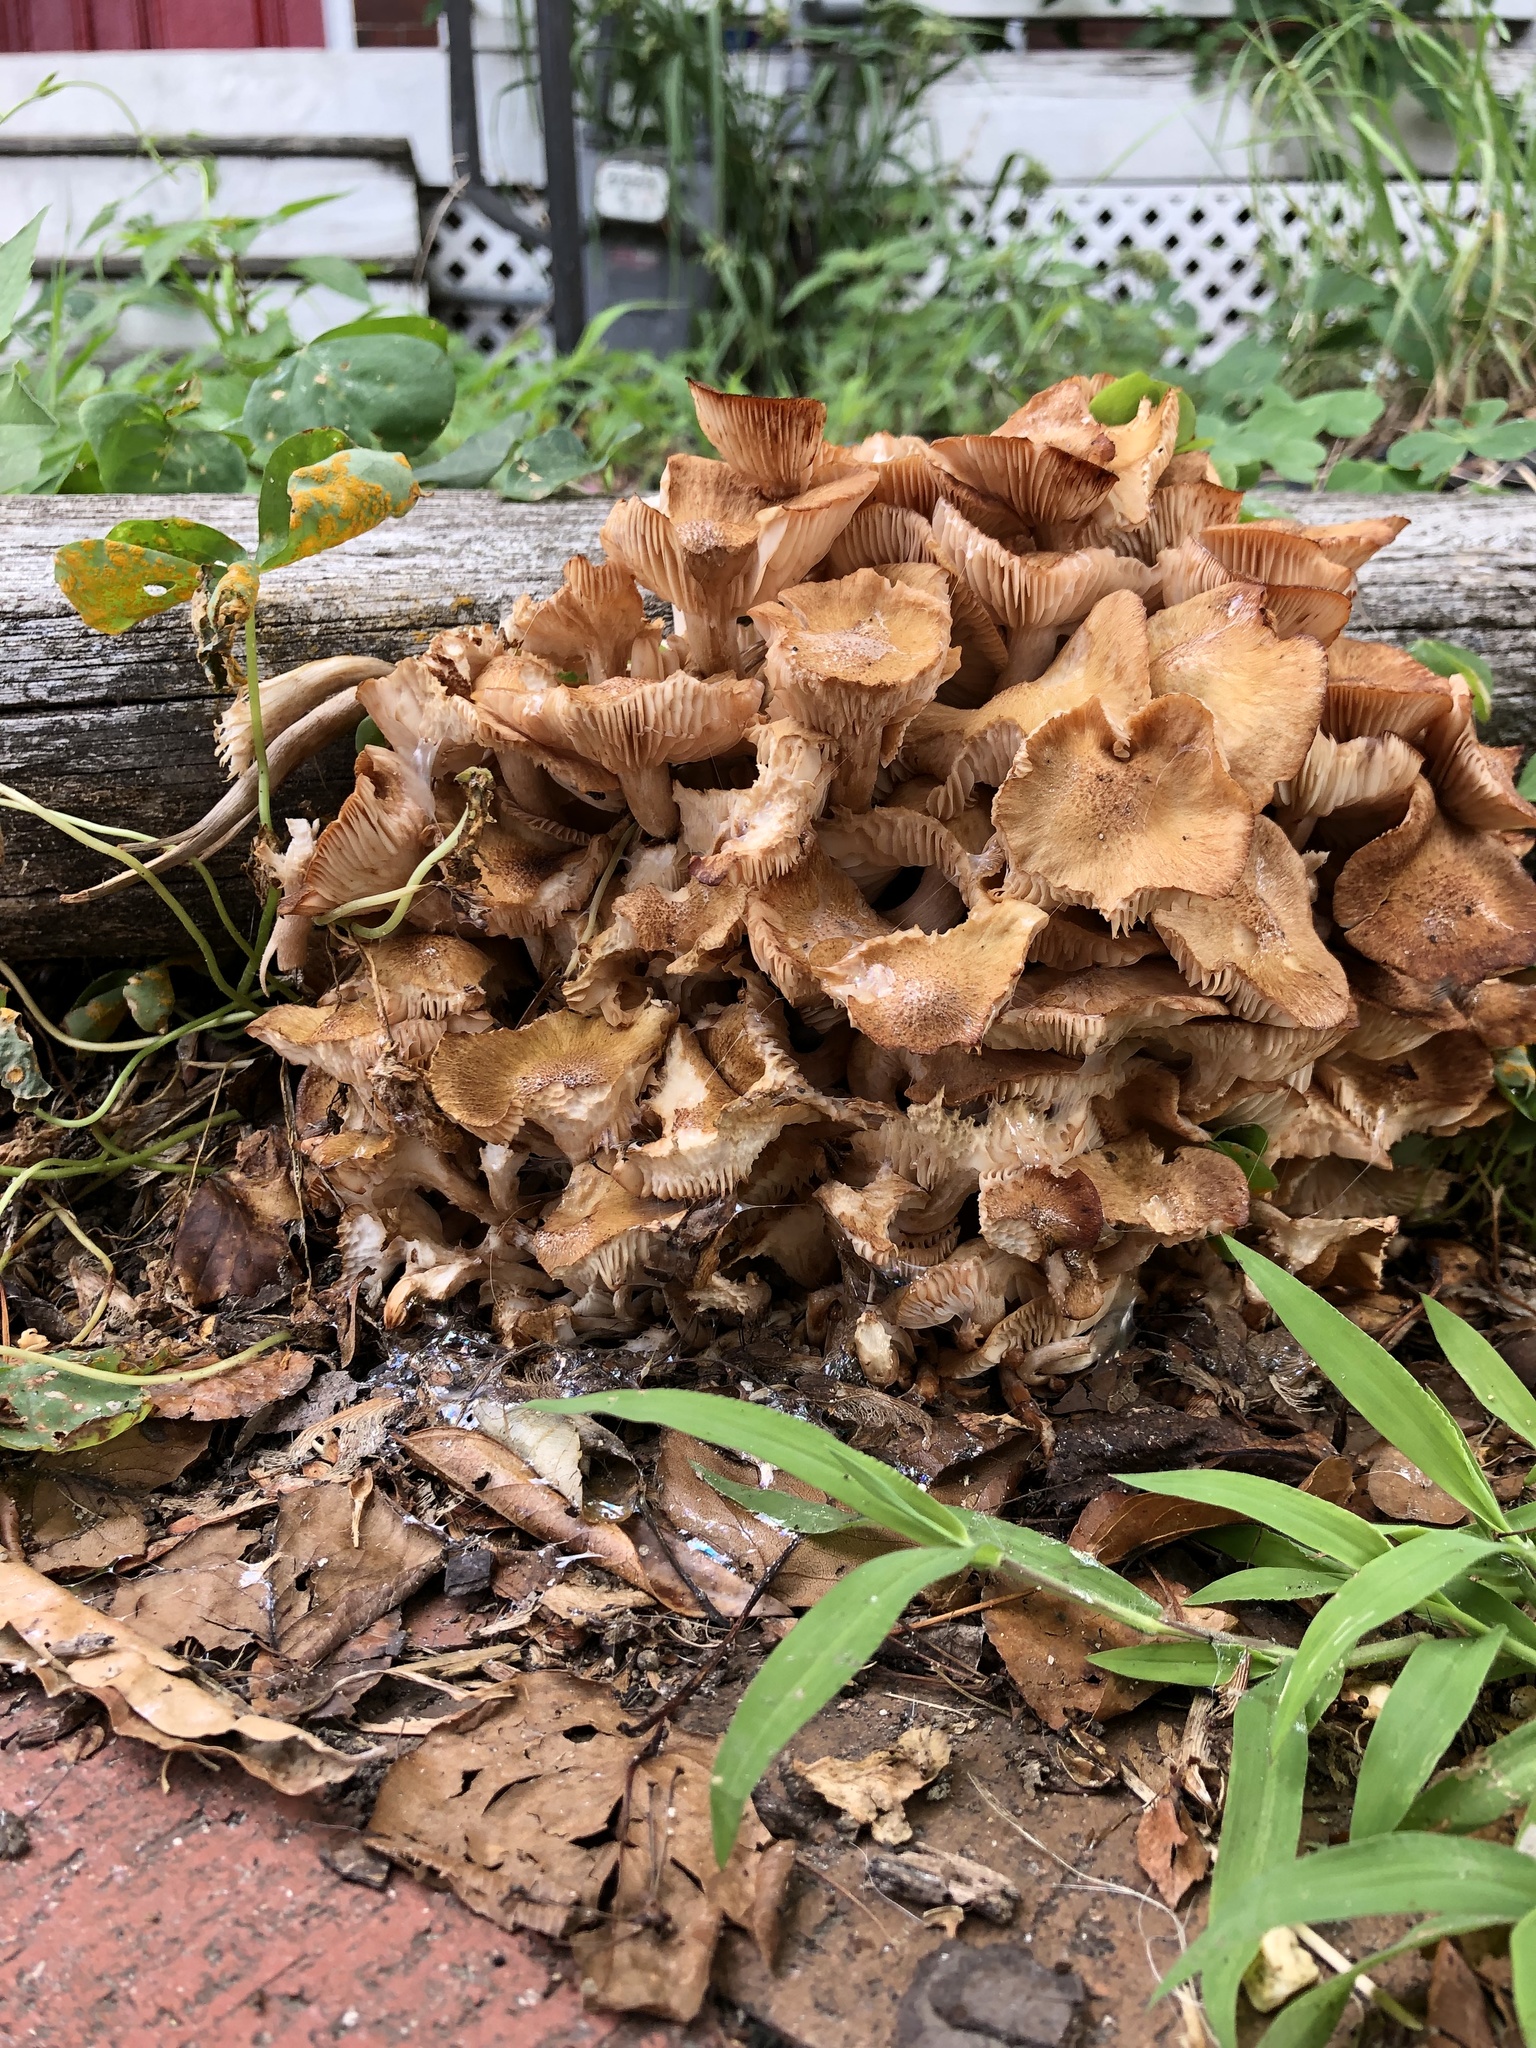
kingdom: Fungi
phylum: Basidiomycota
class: Agaricomycetes
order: Agaricales
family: Physalacriaceae
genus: Desarmillaria
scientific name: Desarmillaria caespitosa
